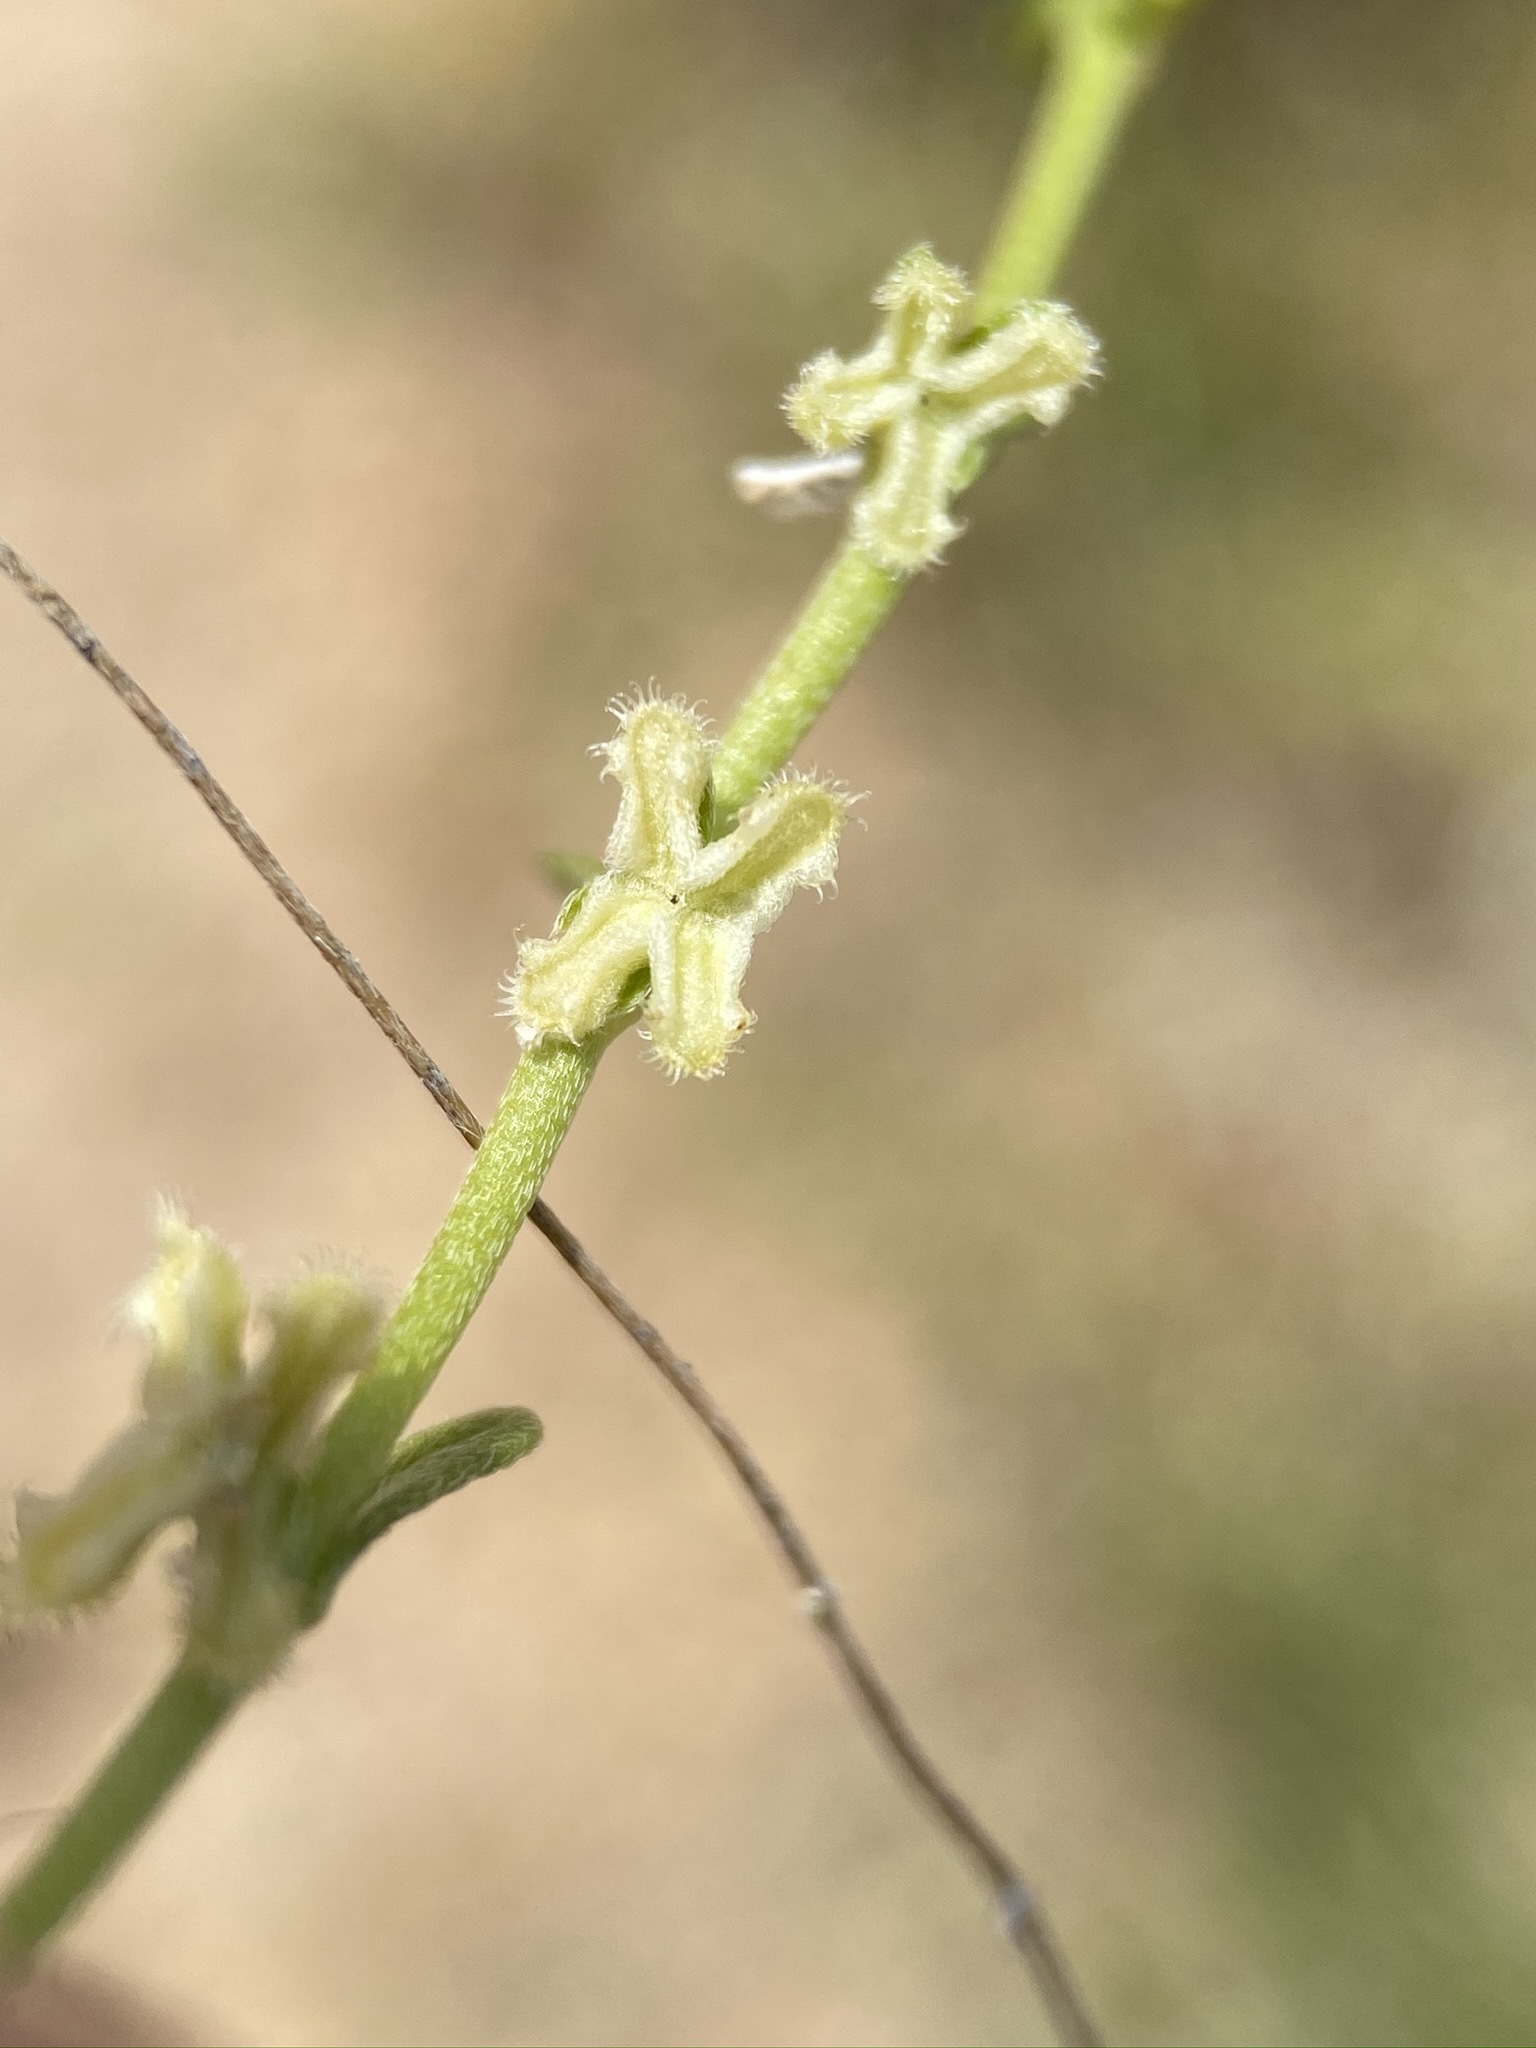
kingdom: Plantae
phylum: Tracheophyta
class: Magnoliopsida
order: Boraginales
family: Boraginaceae
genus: Pectocarya
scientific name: Pectocarya penicillata
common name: Short-leaved combseed
